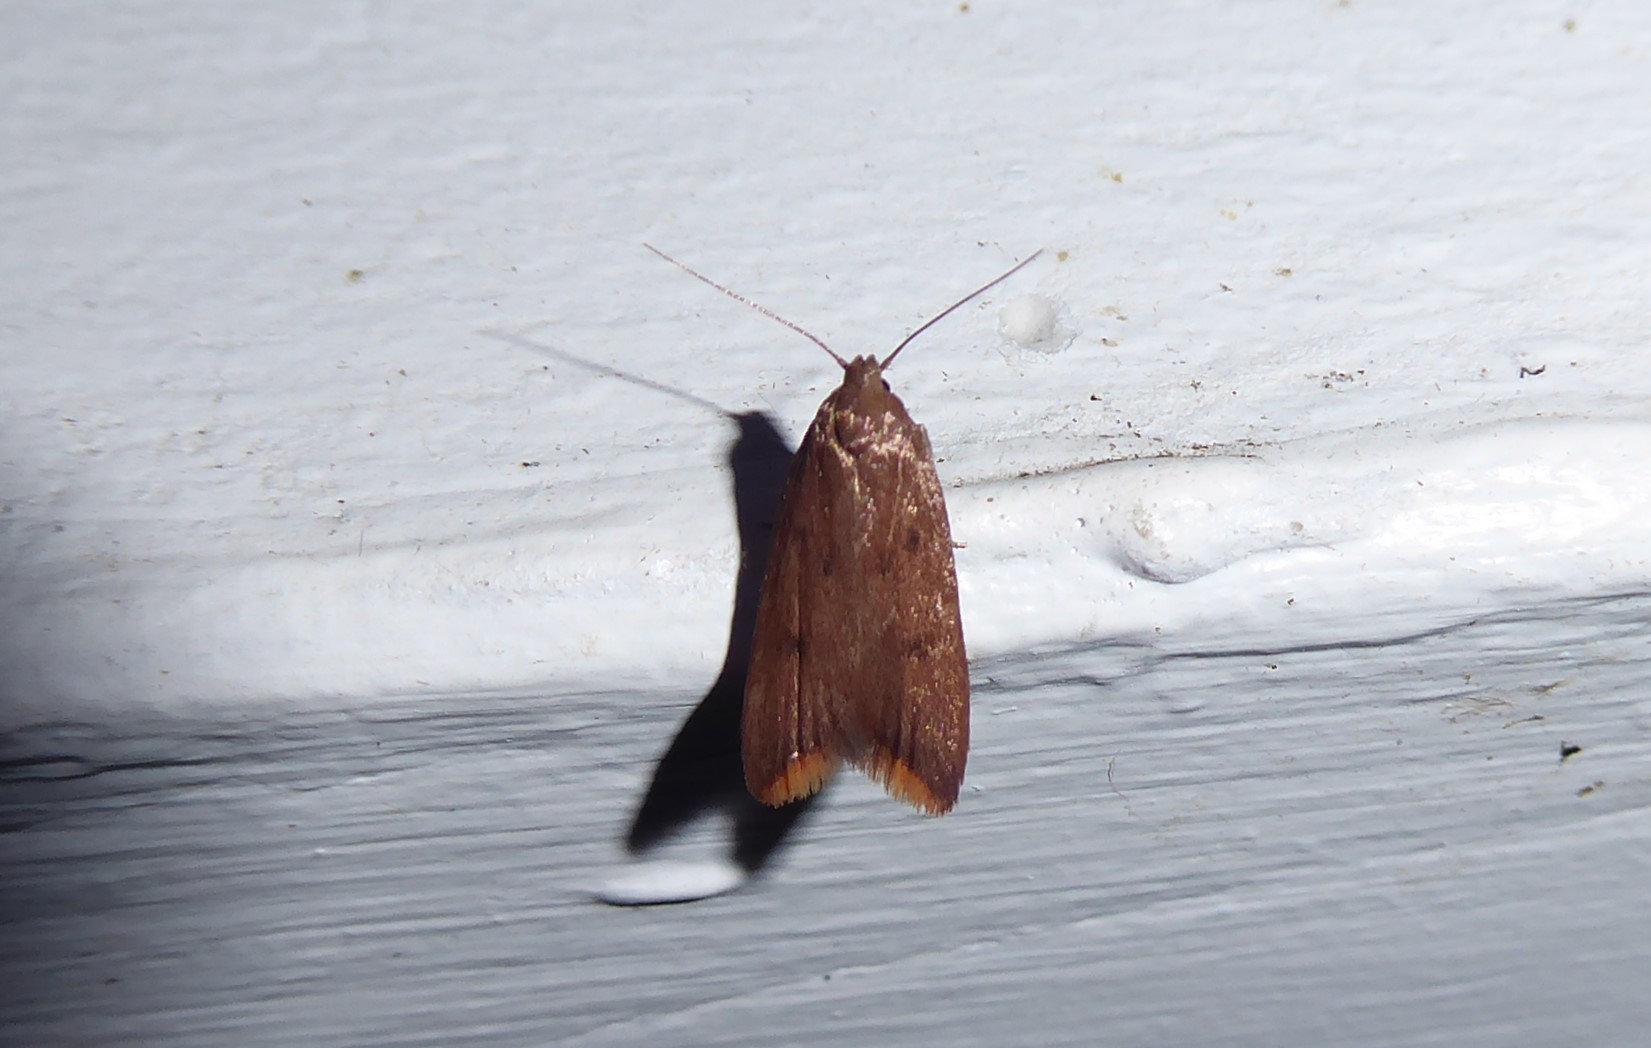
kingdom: Animalia
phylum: Arthropoda
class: Insecta
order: Lepidoptera
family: Oecophoridae
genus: Tachystola
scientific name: Tachystola acroxantha
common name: Ruddy streak
